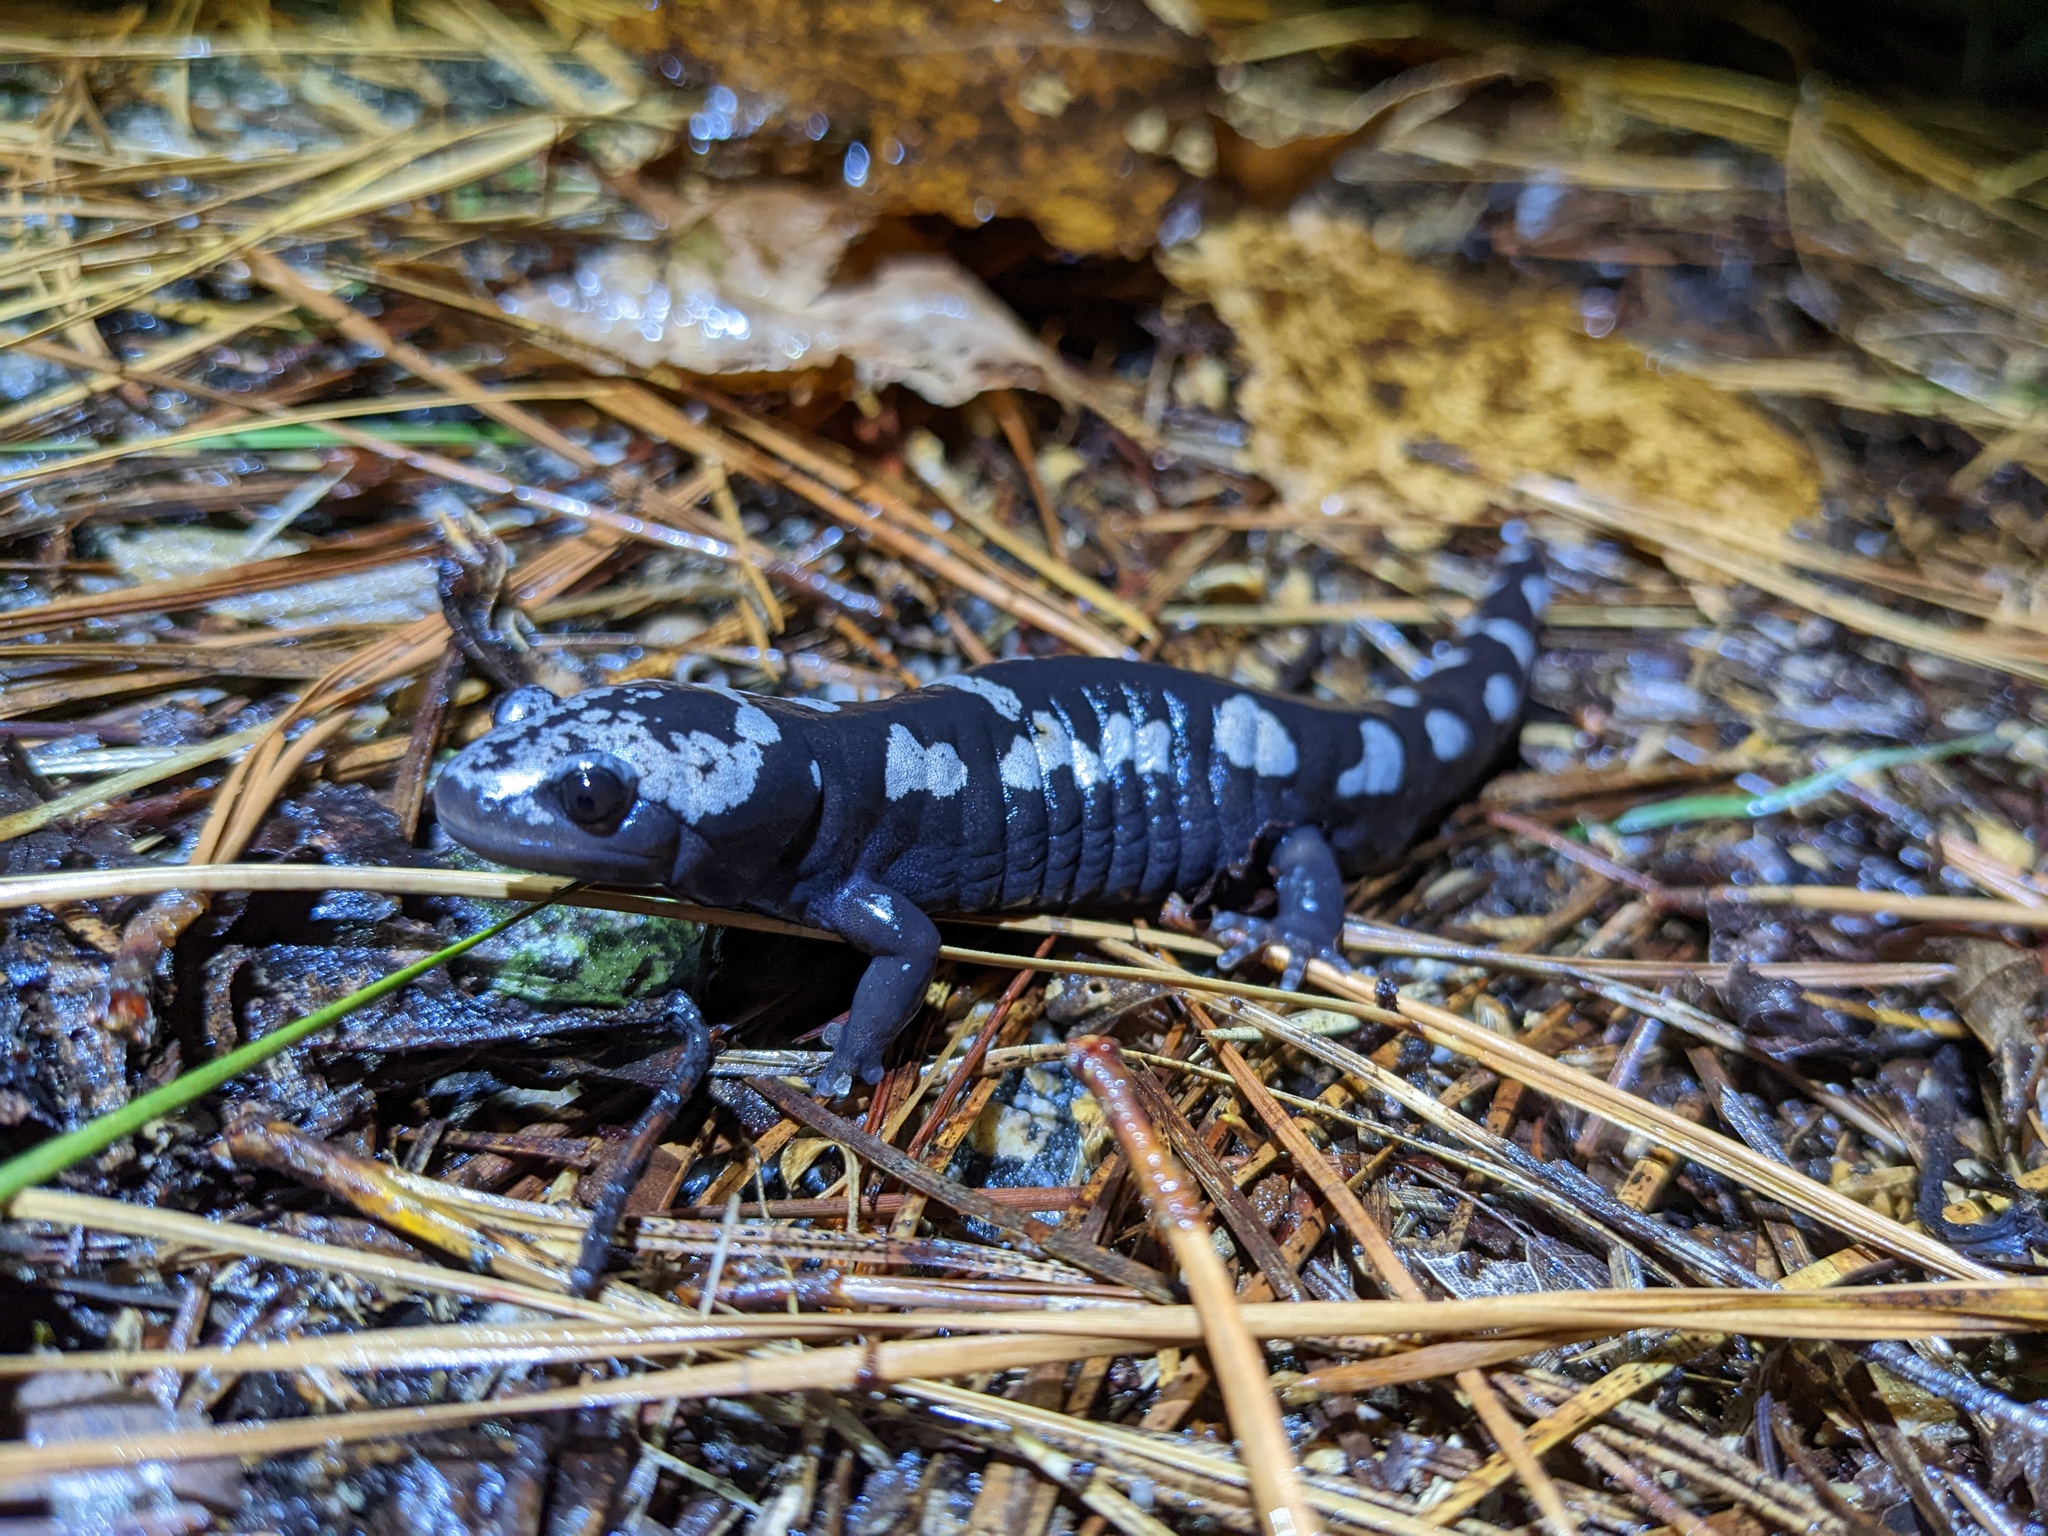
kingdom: Animalia
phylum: Chordata
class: Amphibia
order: Caudata
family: Ambystomatidae
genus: Ambystoma
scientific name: Ambystoma opacum
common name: Marbled salamander
